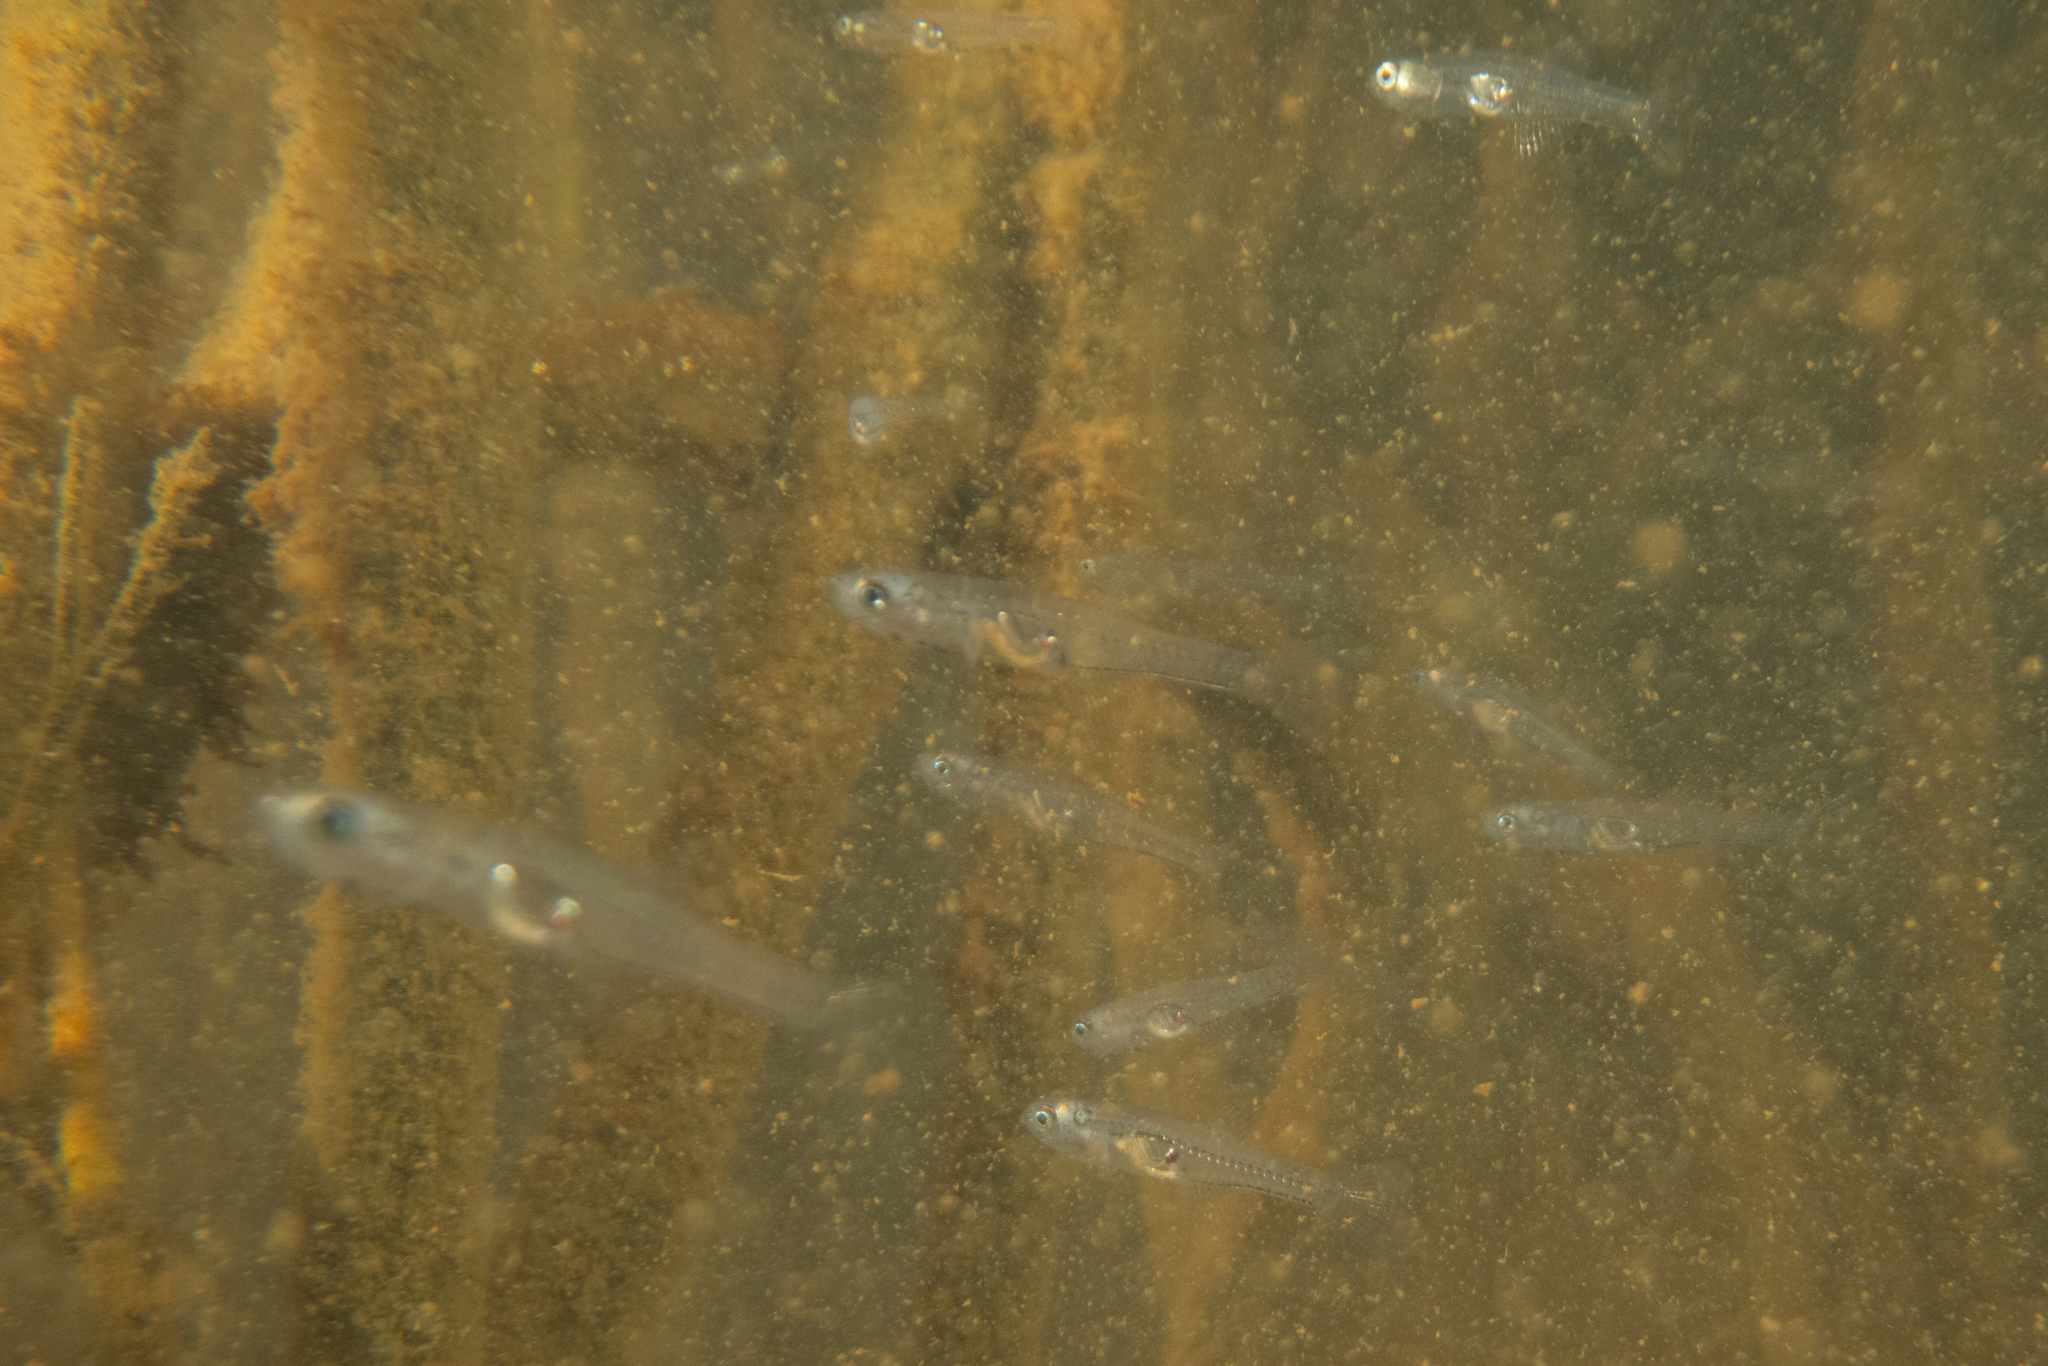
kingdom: Animalia
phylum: Chordata
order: Perciformes
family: Gobiidae
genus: Gobiopterus
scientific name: Gobiopterus semivestitus
